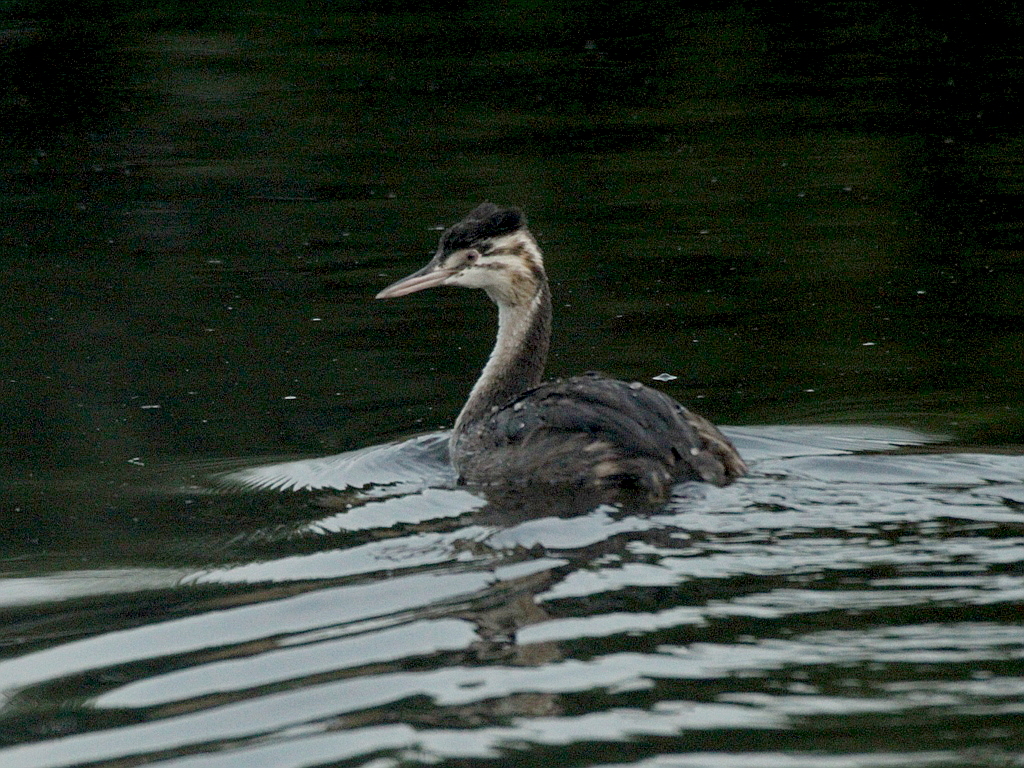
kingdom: Animalia
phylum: Chordata
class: Aves
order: Podicipediformes
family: Podicipedidae
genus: Podiceps
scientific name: Podiceps cristatus
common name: Great crested grebe
